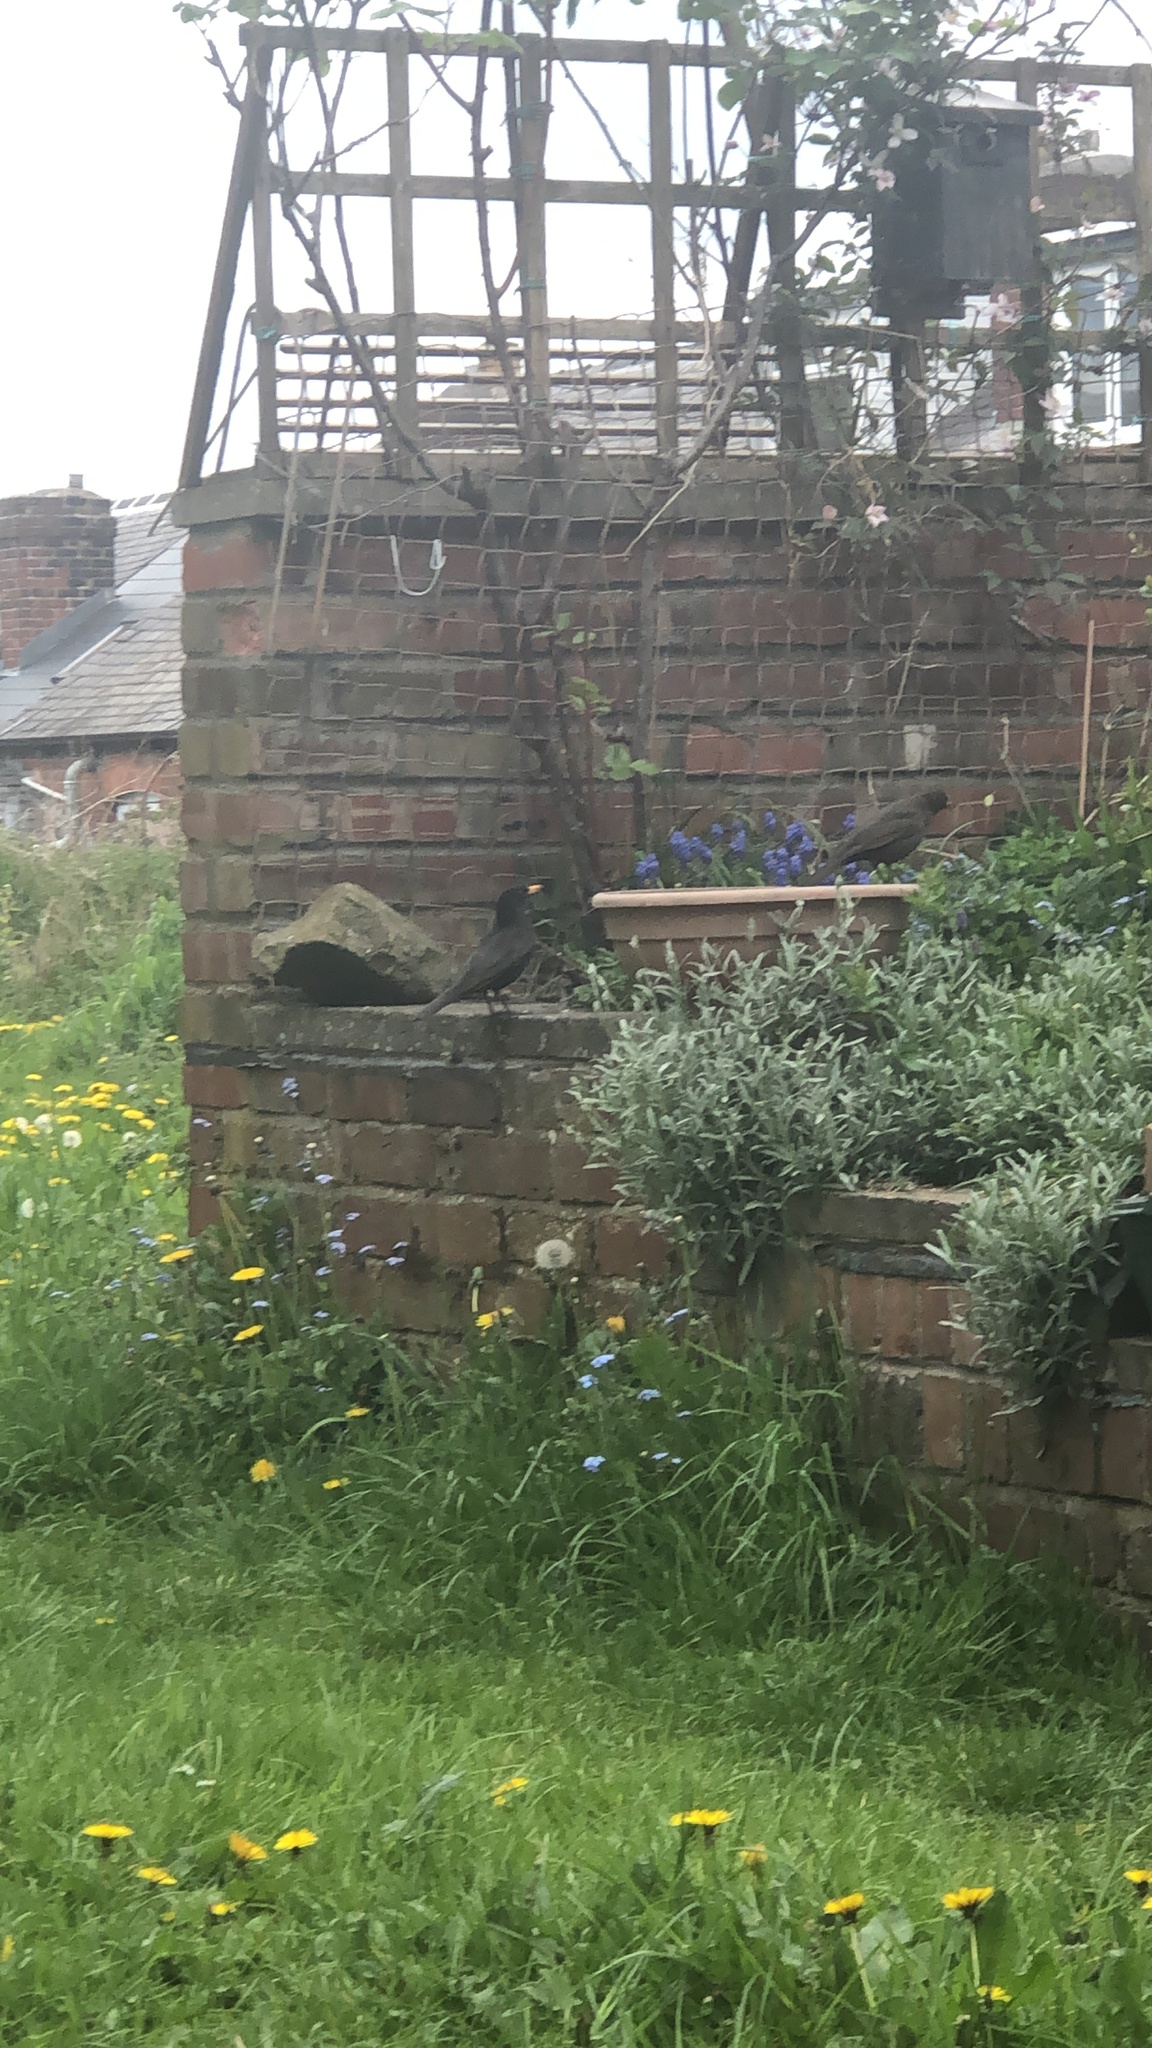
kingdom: Animalia
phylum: Chordata
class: Aves
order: Passeriformes
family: Turdidae
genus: Turdus
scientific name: Turdus merula
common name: Common blackbird
